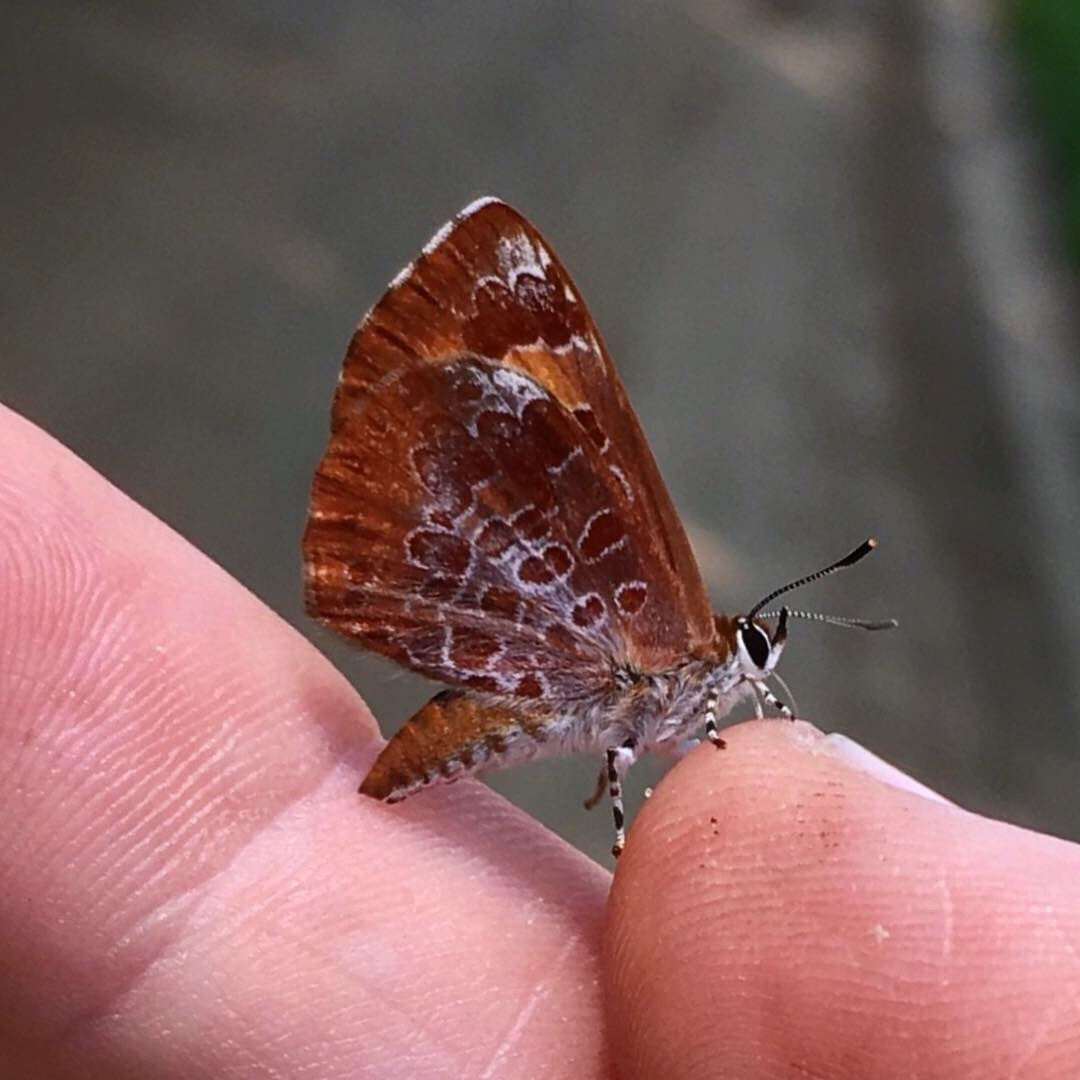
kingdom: Animalia
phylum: Arthropoda
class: Insecta
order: Lepidoptera
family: Lycaenidae
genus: Feniseca
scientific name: Feniseca tarquinius
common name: Harvester
